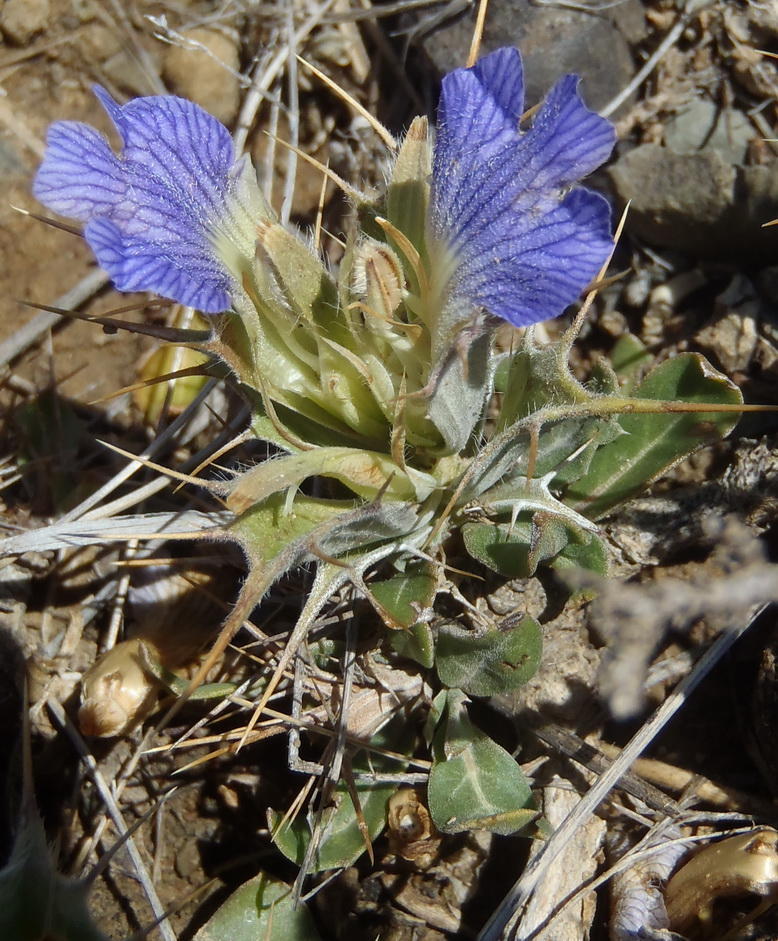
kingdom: Plantae
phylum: Tracheophyta
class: Magnoliopsida
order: Lamiales
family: Acanthaceae
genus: Blepharis
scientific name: Blepharis mitrata
